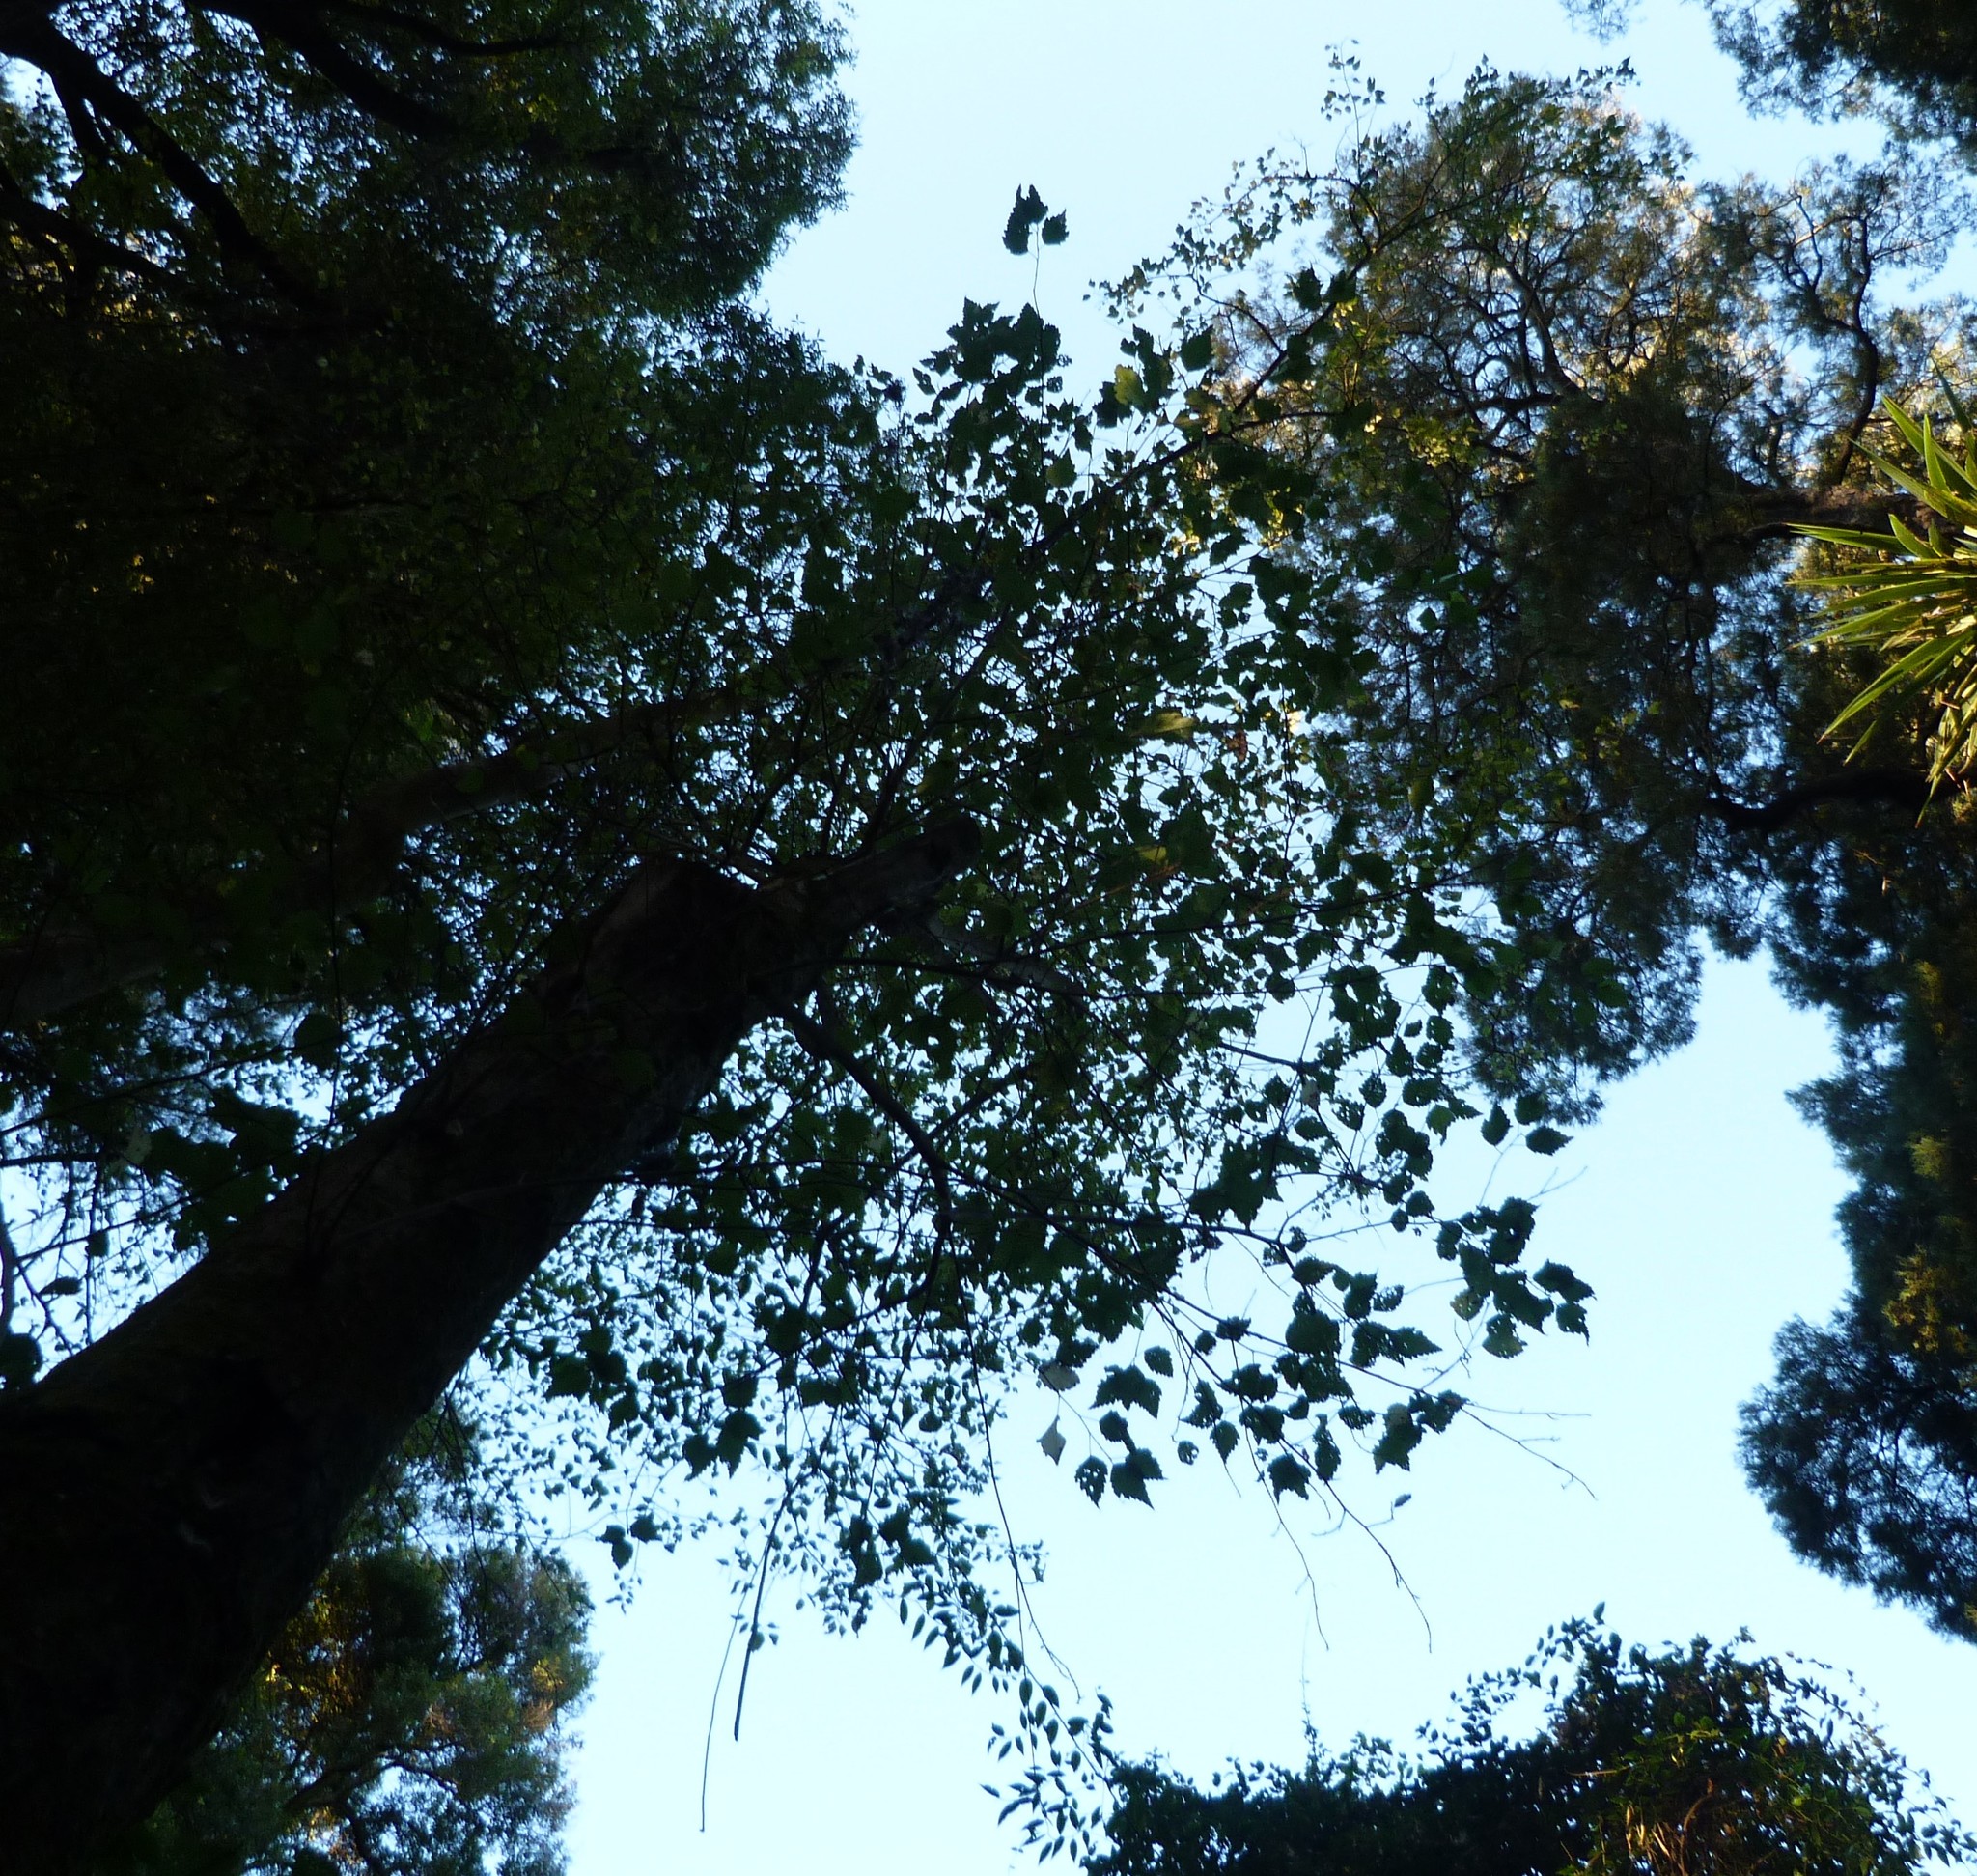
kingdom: Plantae
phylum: Tracheophyta
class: Magnoliopsida
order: Malvales
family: Malvaceae
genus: Plagianthus
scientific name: Plagianthus regius
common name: Manatu
